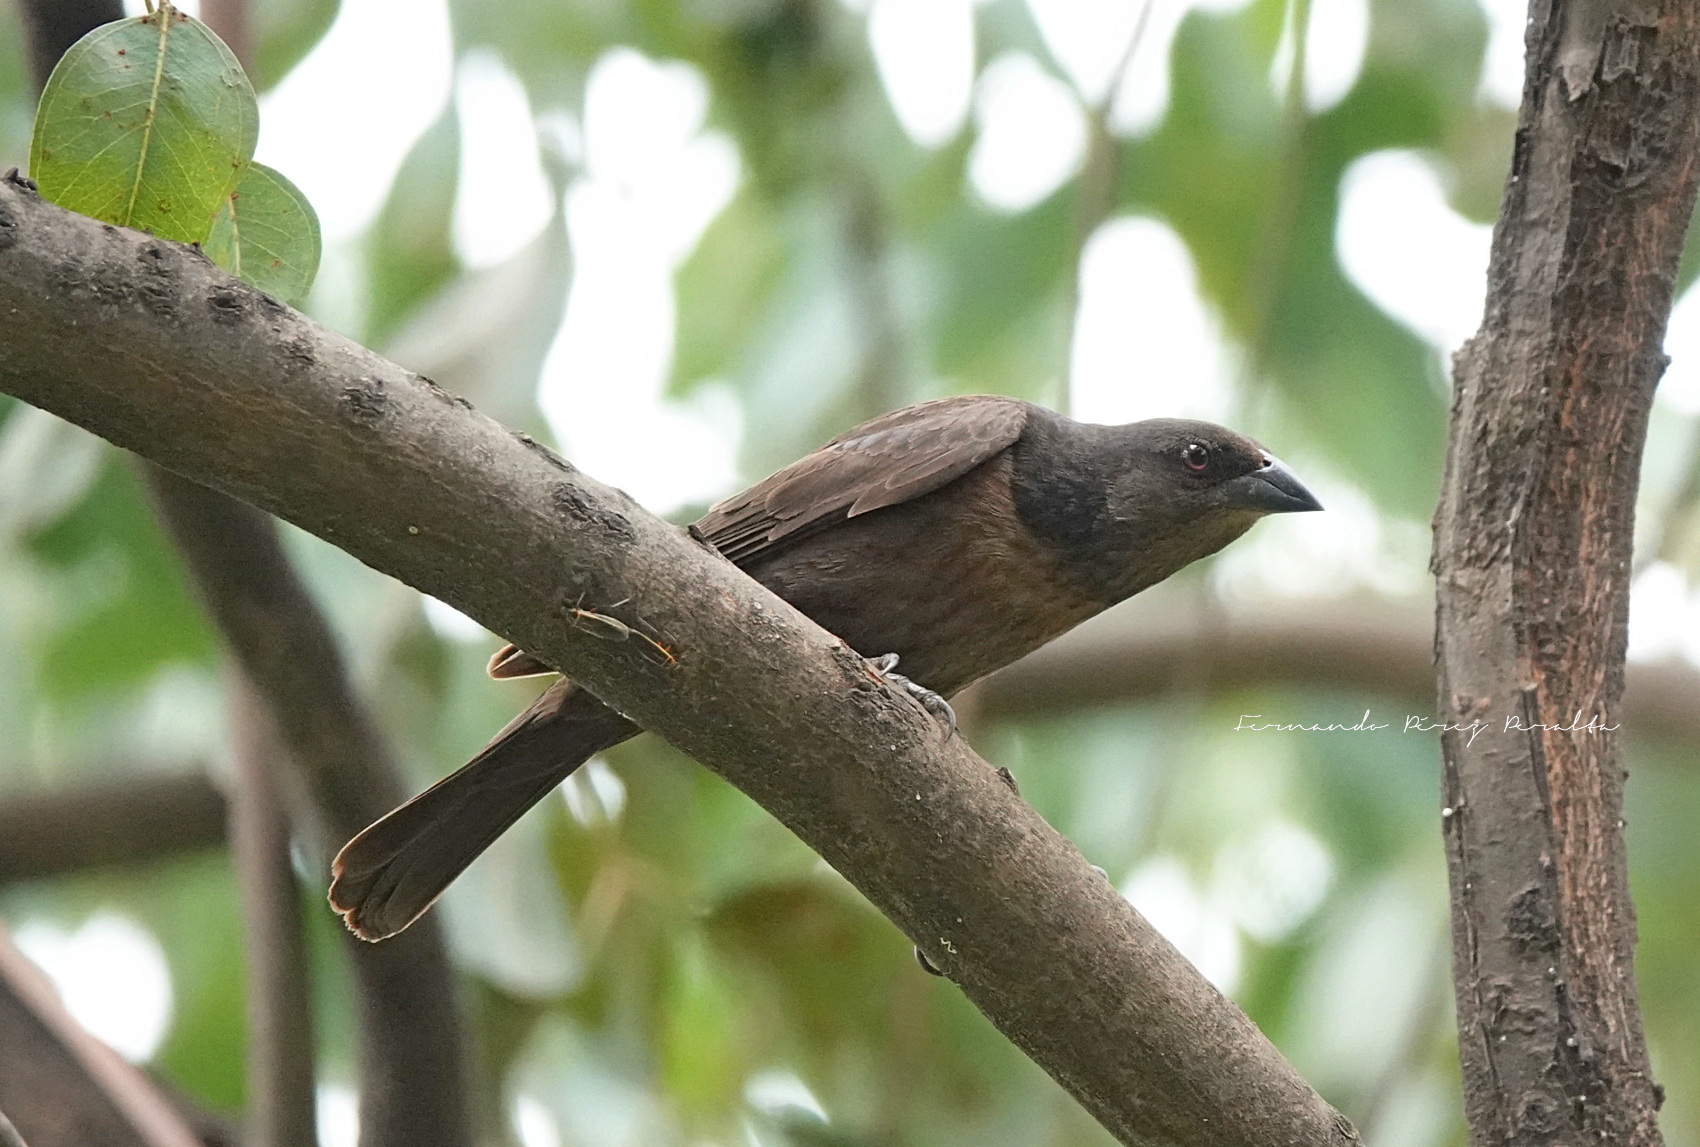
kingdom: Animalia
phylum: Chordata
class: Aves
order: Passeriformes
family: Icteridae
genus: Molothrus
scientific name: Molothrus aeneus
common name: Bronzed cowbird
